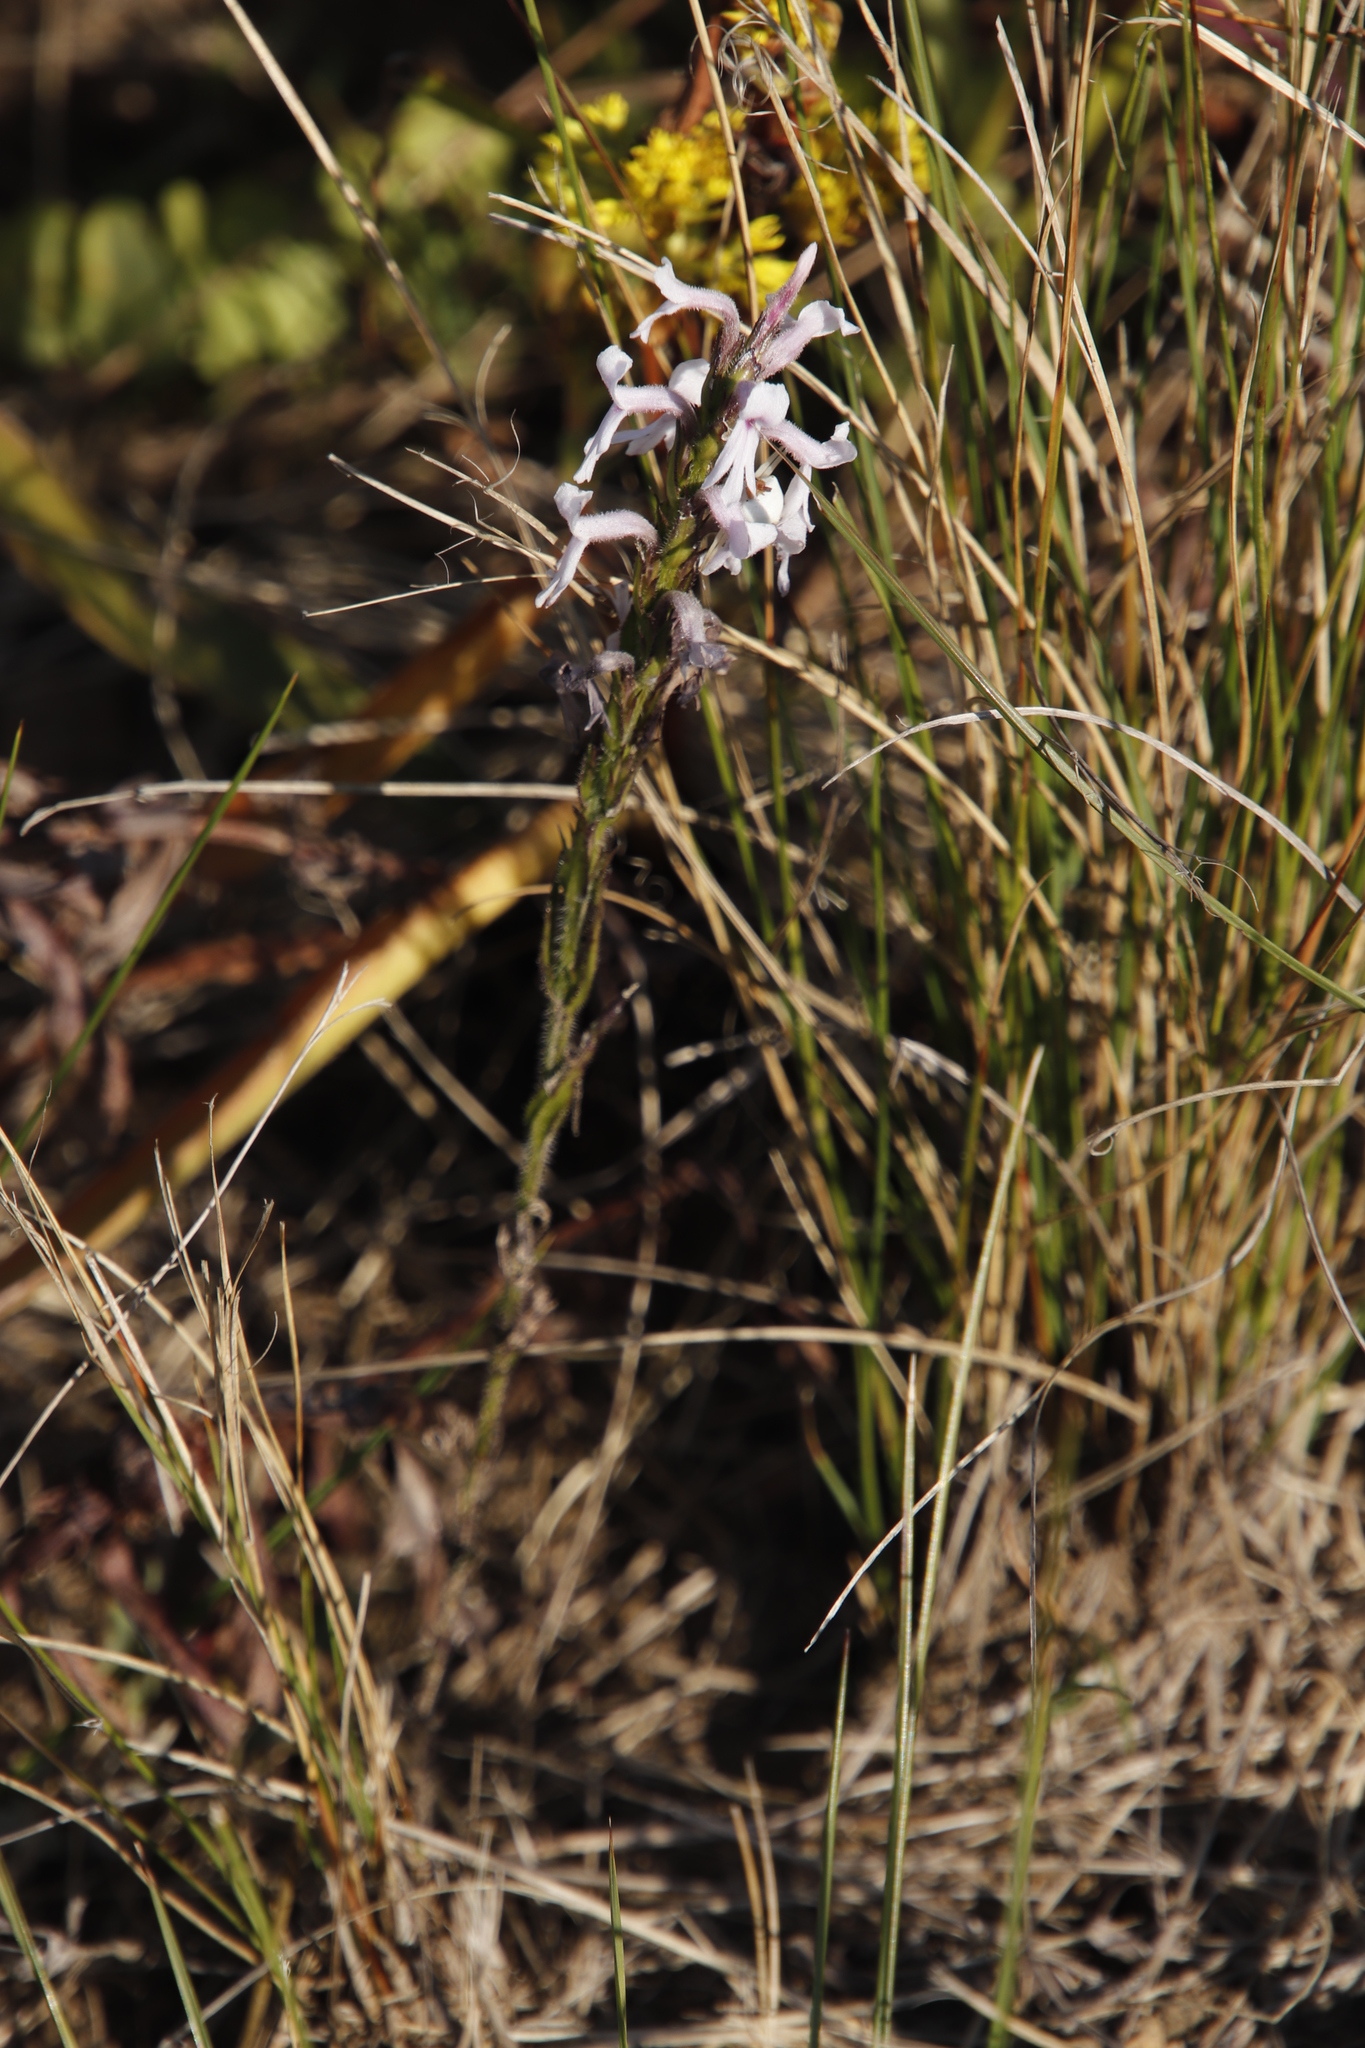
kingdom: Plantae
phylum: Tracheophyta
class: Magnoliopsida
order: Lamiales
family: Orobanchaceae
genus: Striga
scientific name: Striga bilabiata
